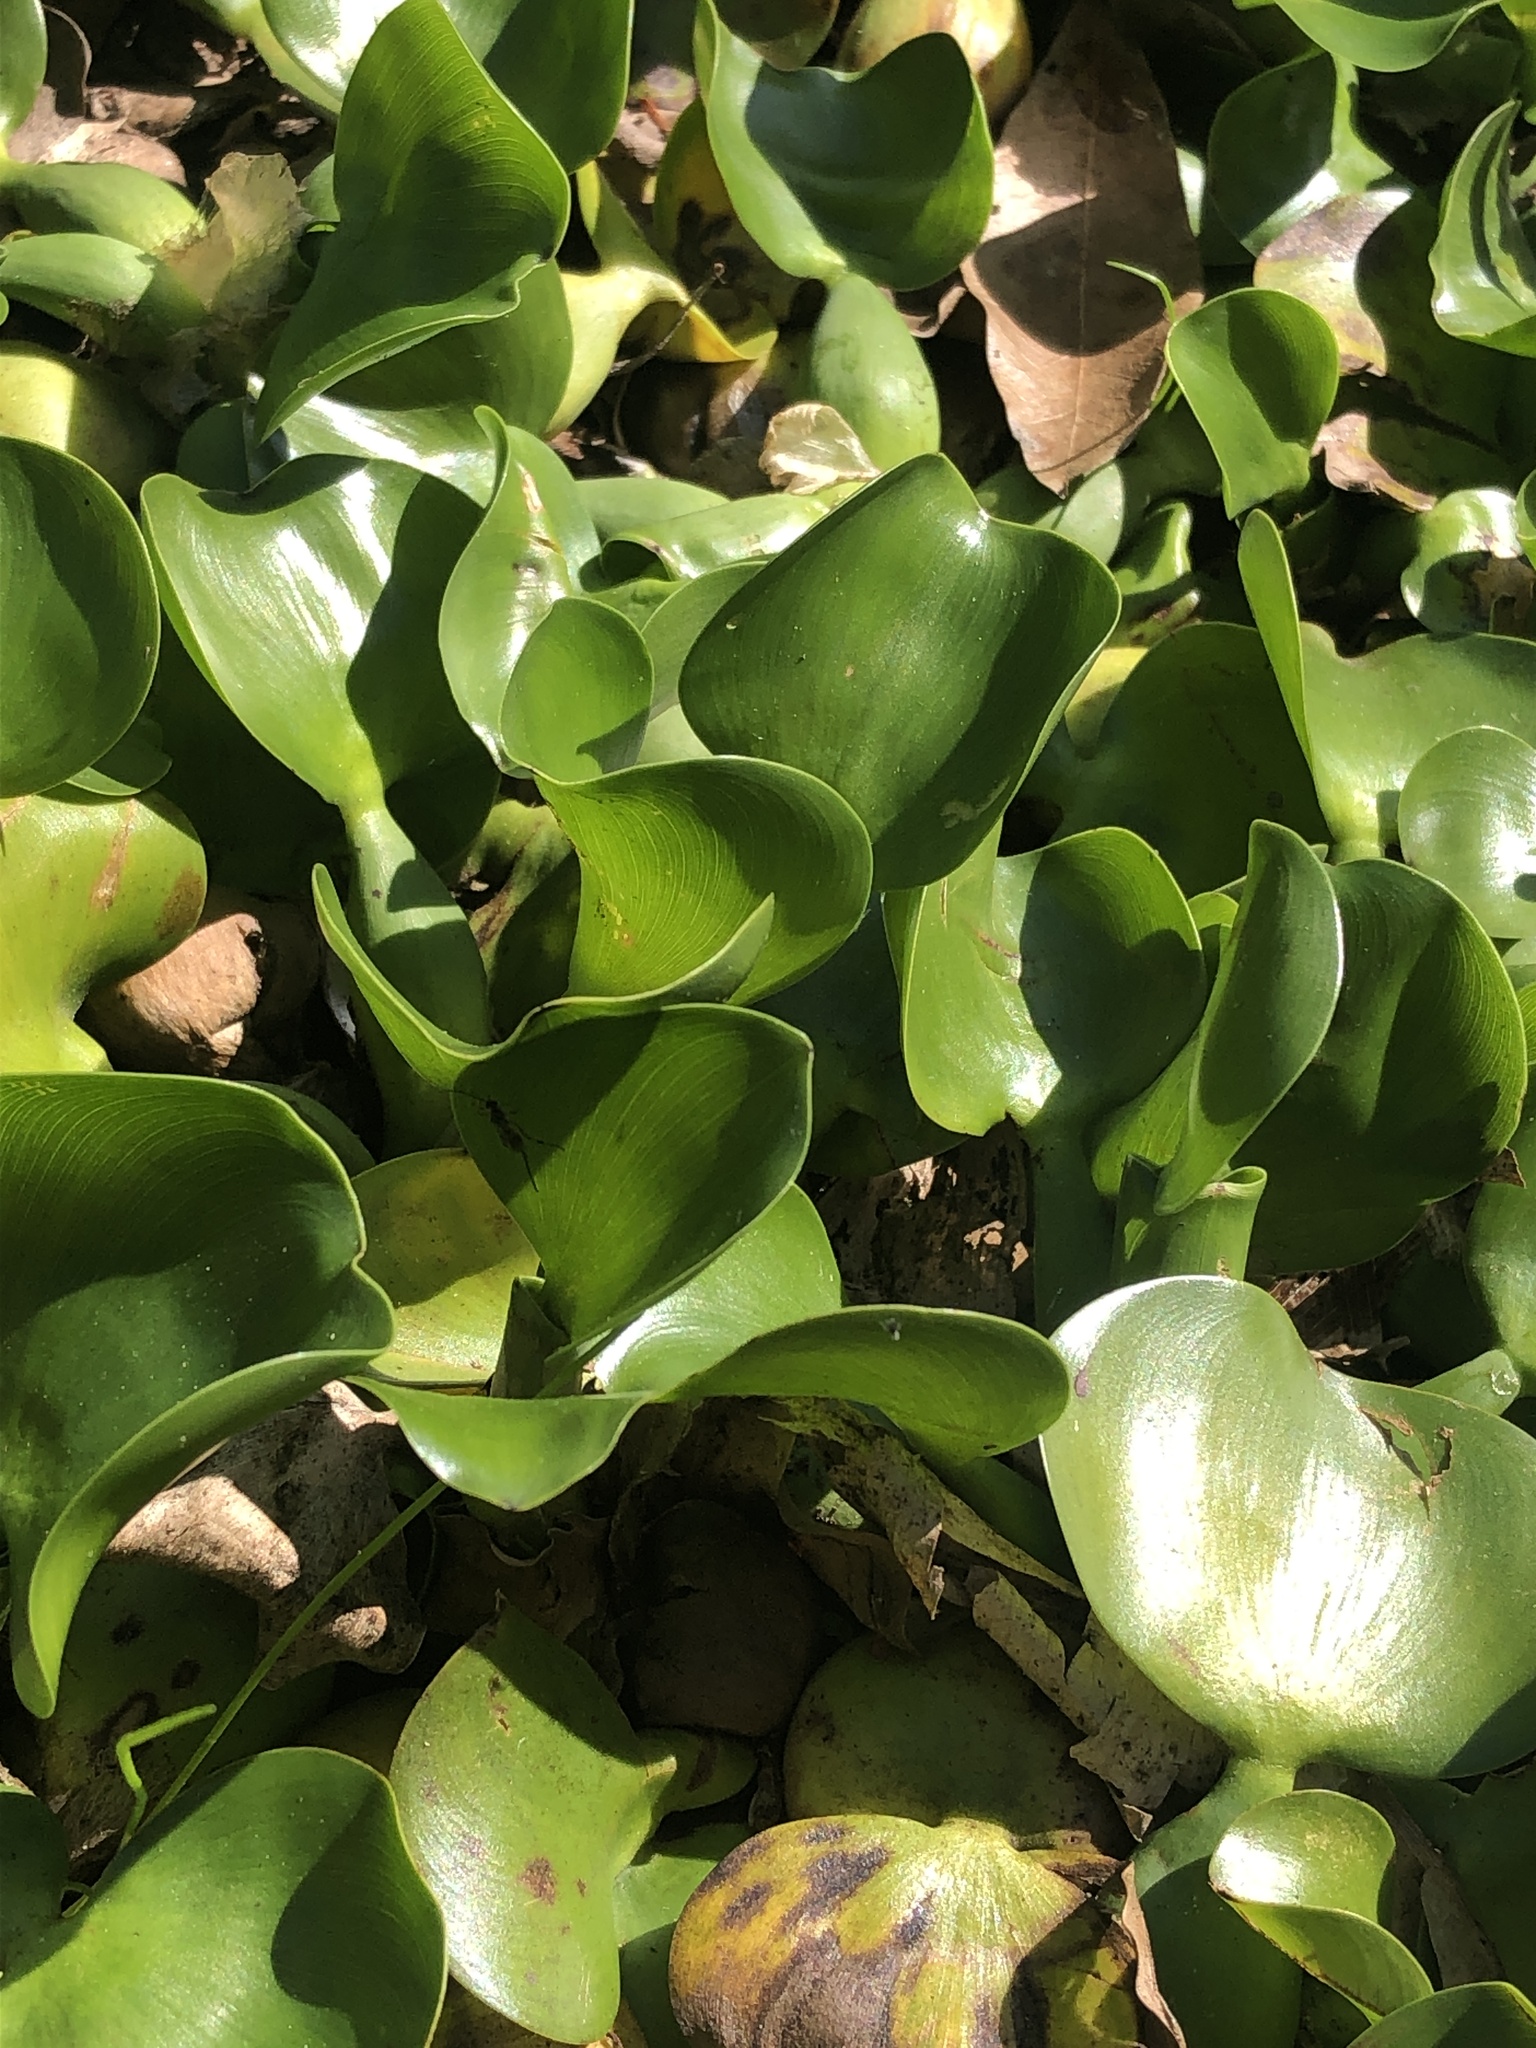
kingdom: Plantae
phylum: Tracheophyta
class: Liliopsida
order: Commelinales
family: Pontederiaceae
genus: Pontederia
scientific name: Pontederia crassipes
